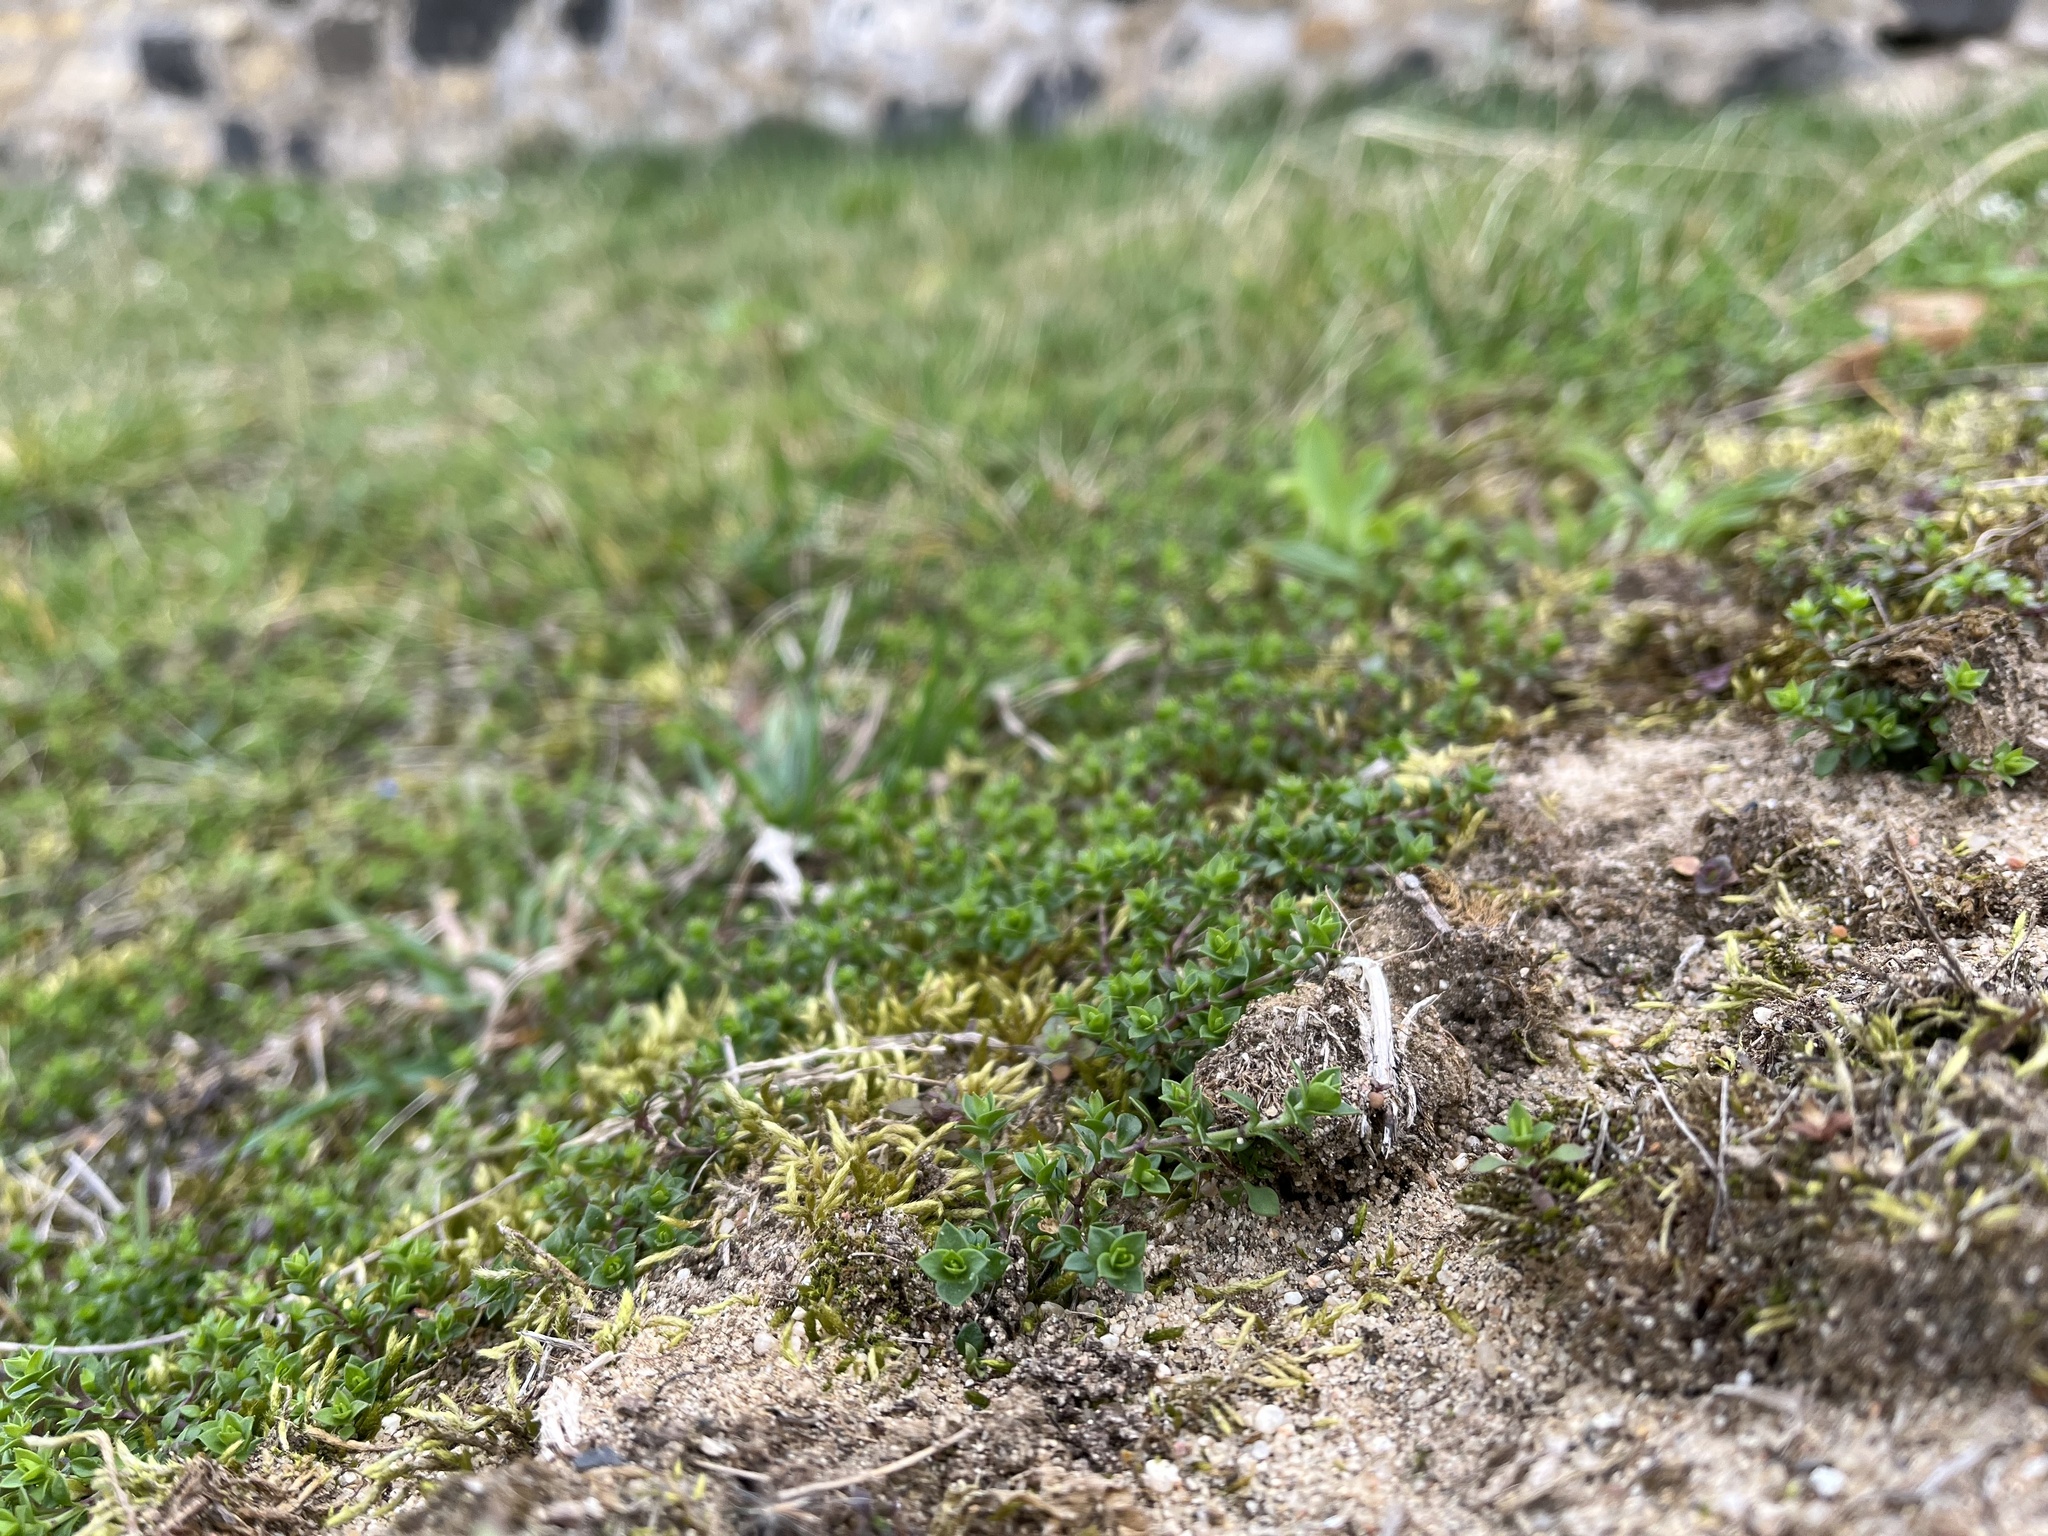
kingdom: Plantae
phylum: Tracheophyta
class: Magnoliopsida
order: Caryophyllales
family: Caryophyllaceae
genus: Arenaria
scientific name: Arenaria serpyllifolia
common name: Thyme-leaved sandwort
